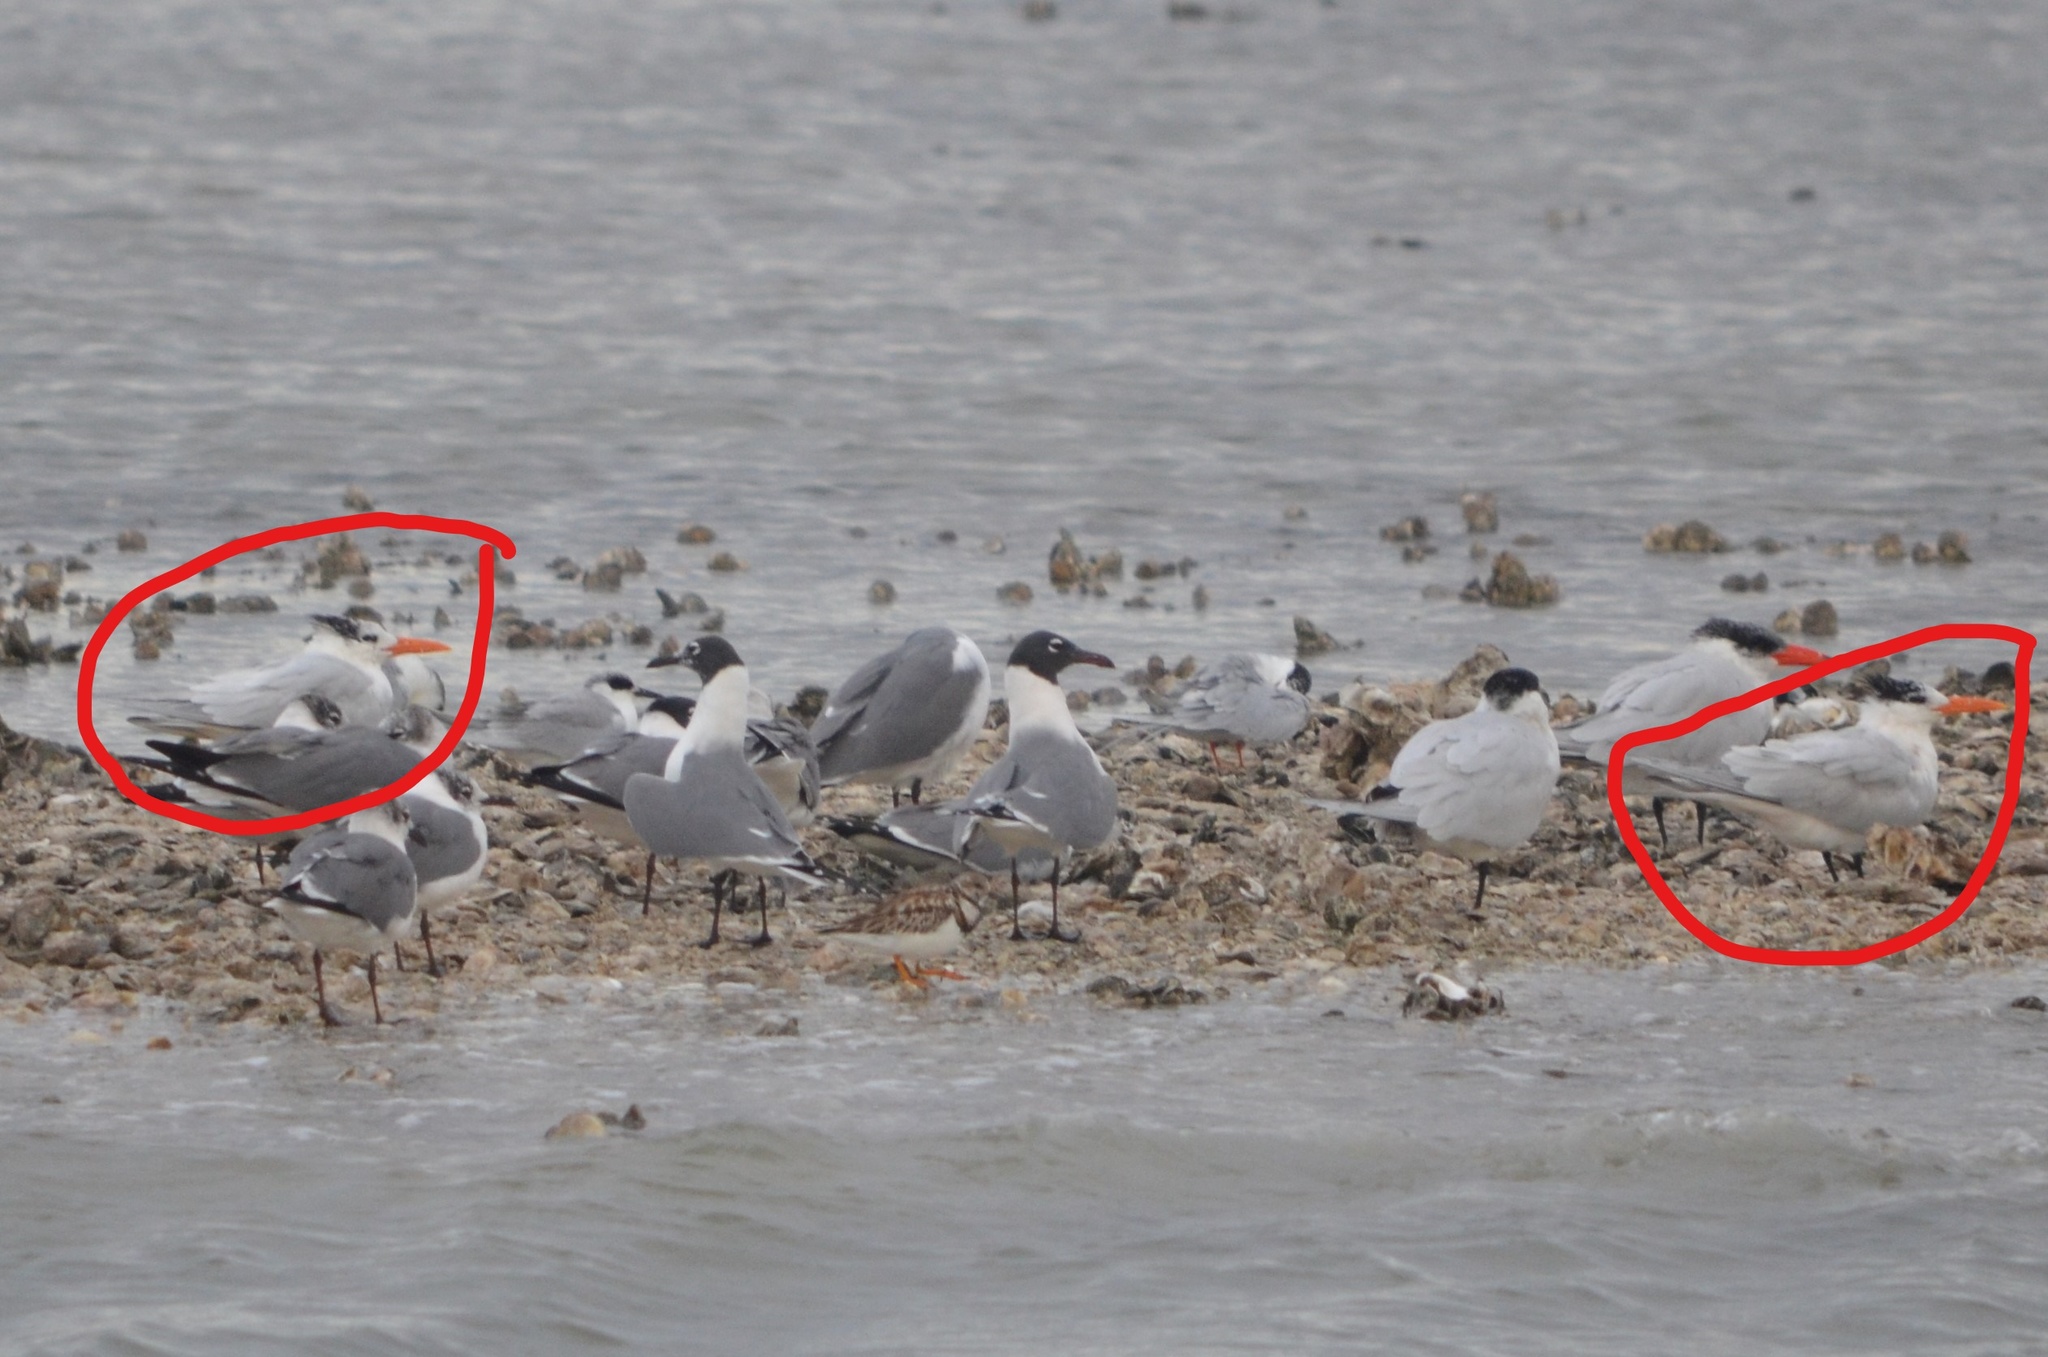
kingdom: Animalia
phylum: Chordata
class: Aves
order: Charadriiformes
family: Laridae
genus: Thalasseus
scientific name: Thalasseus maximus
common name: Royal tern
